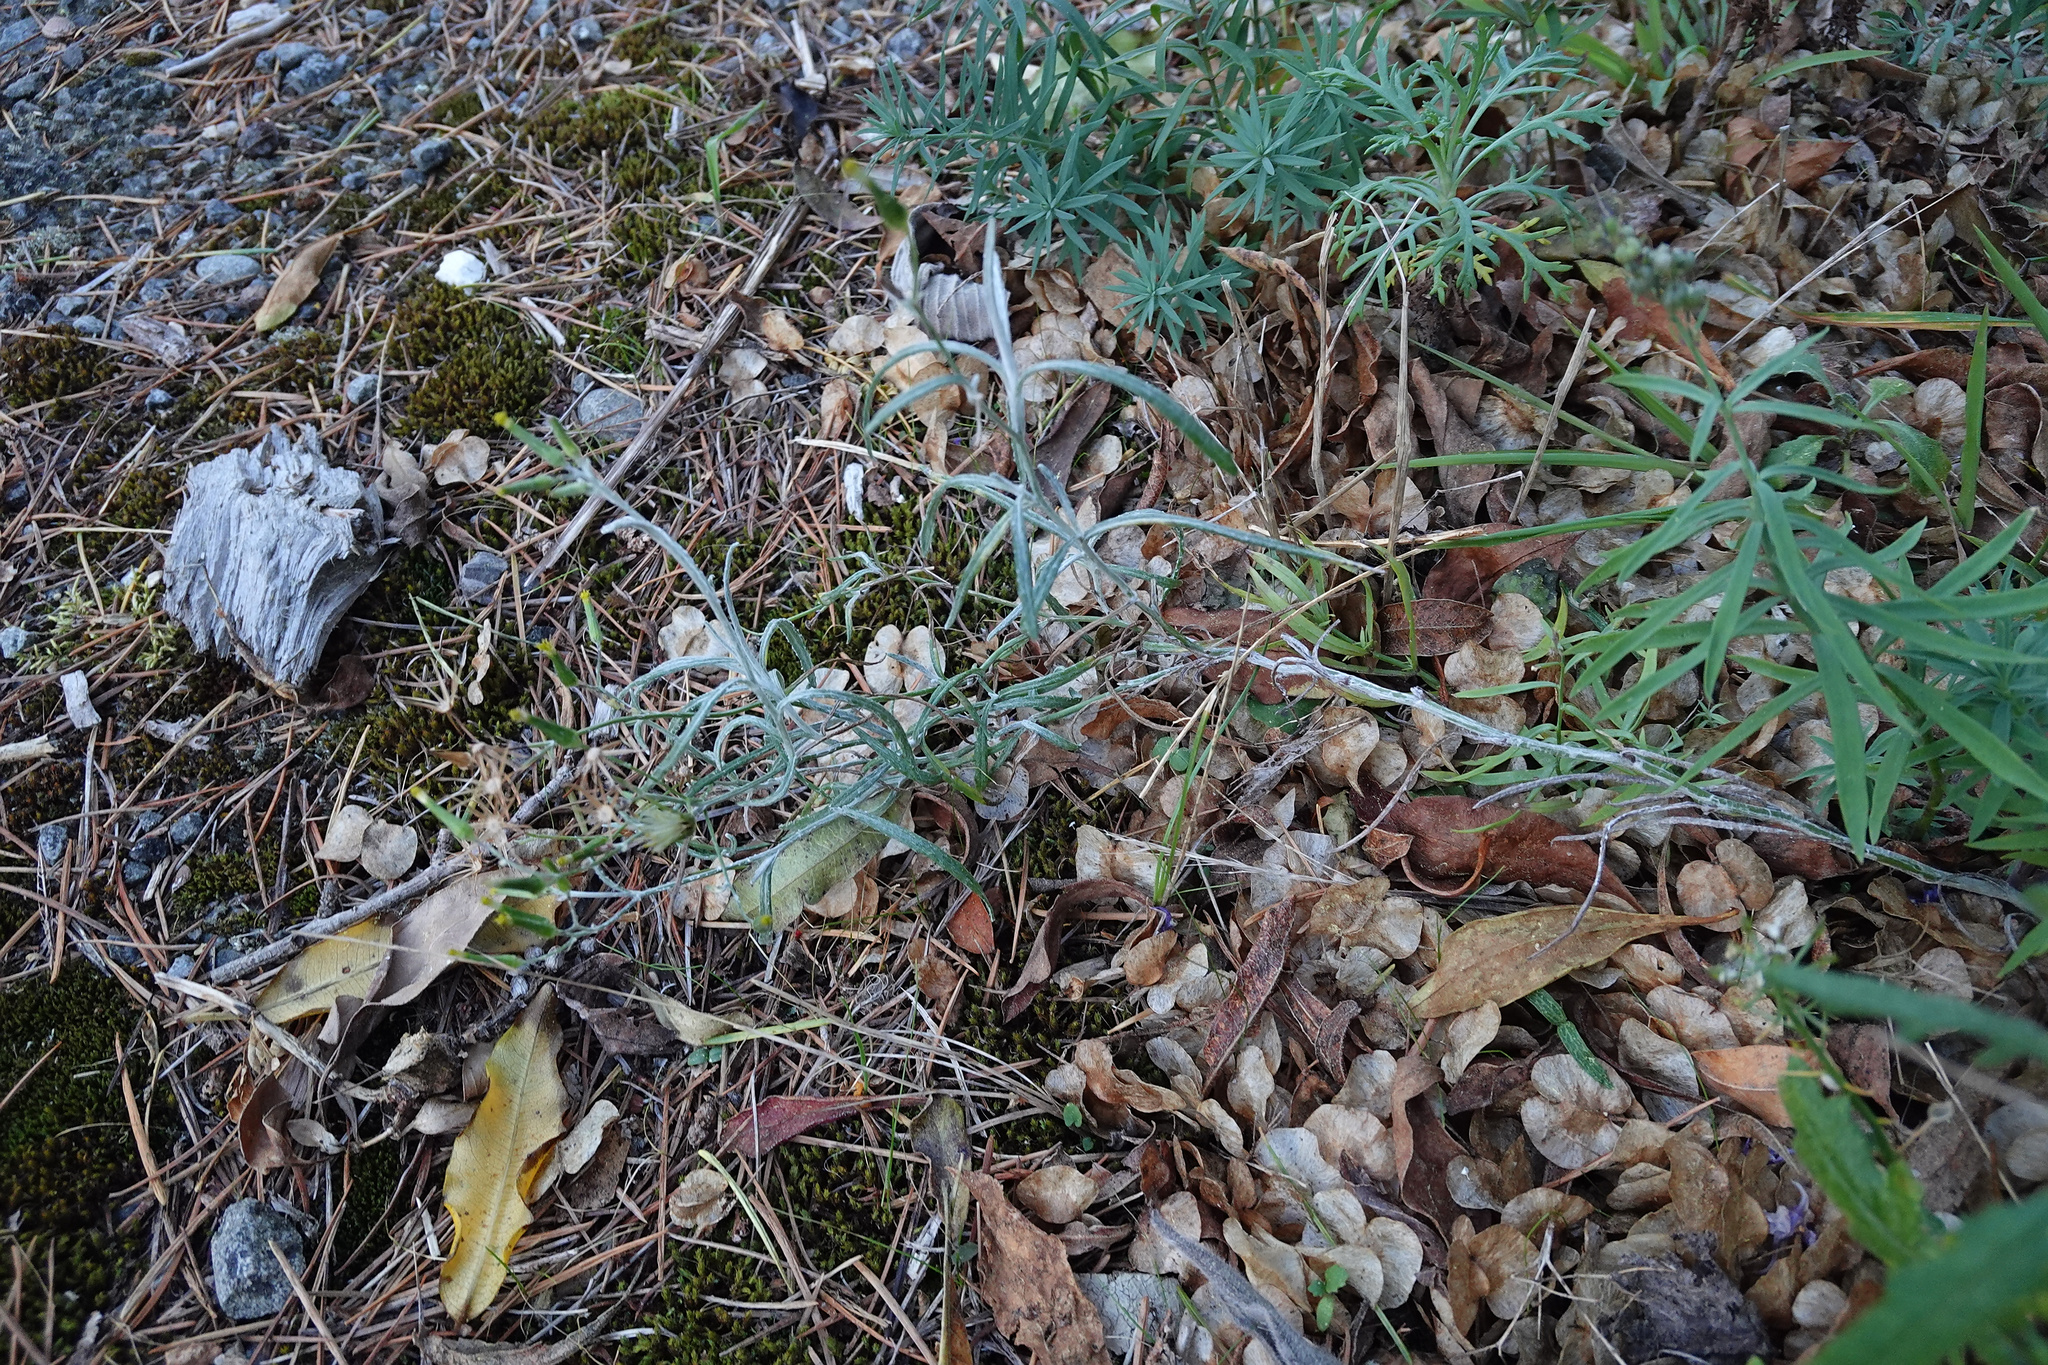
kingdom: Plantae
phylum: Tracheophyta
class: Magnoliopsida
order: Asterales
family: Asteraceae
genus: Senecio
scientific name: Senecio quadridentatus
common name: Cotton fireweed
